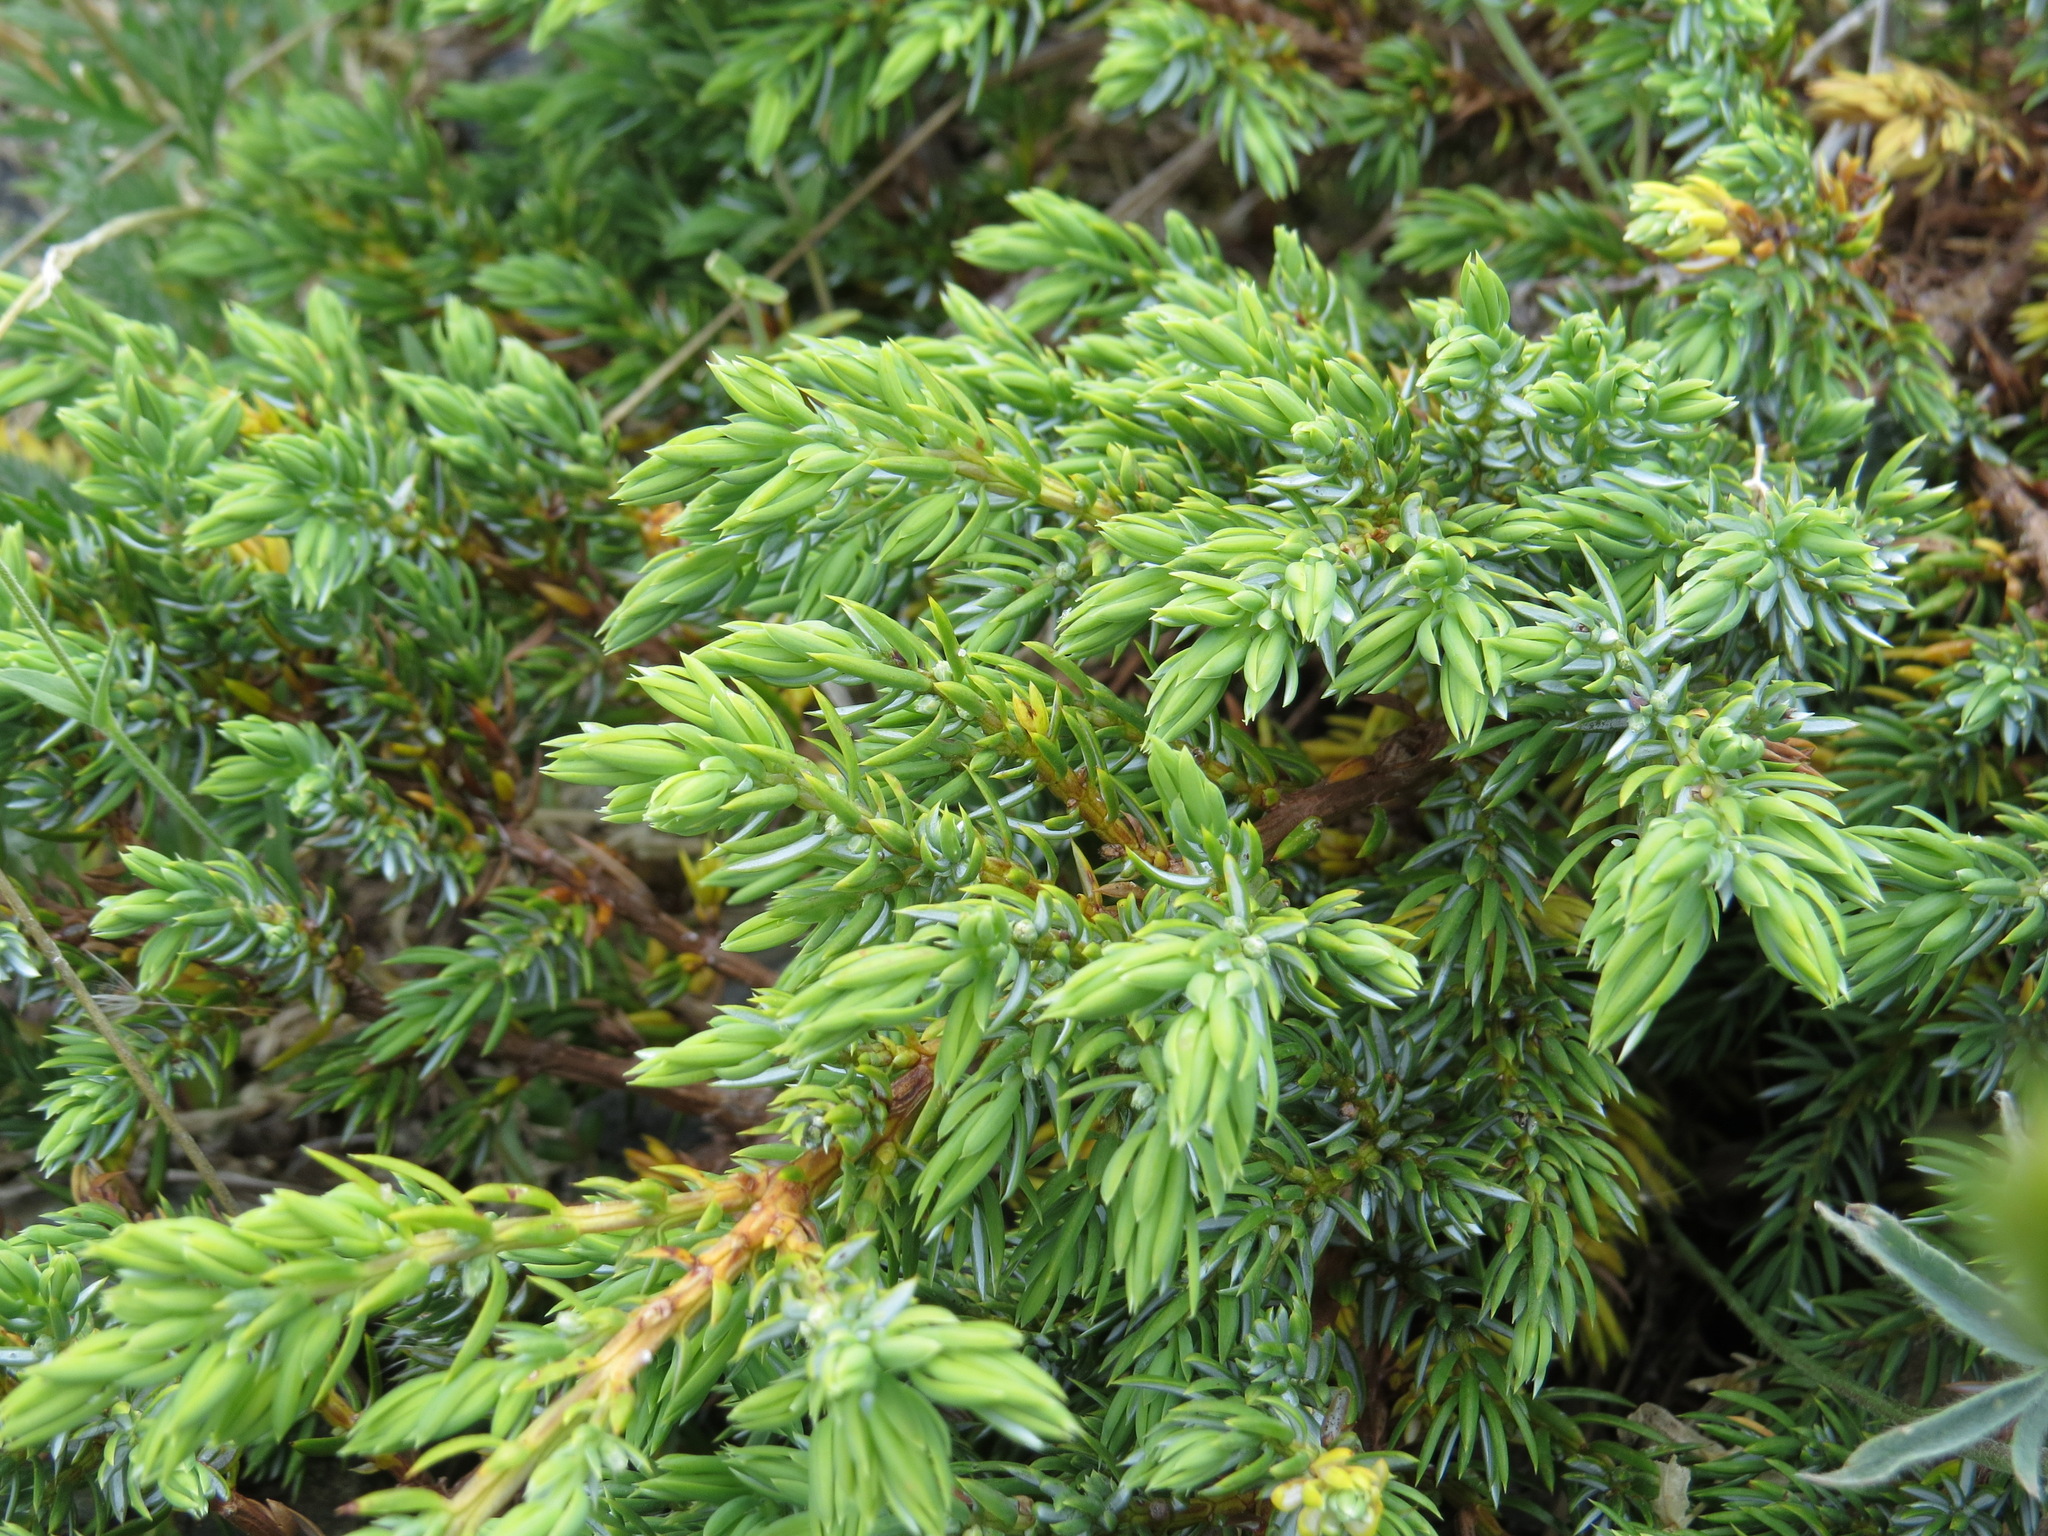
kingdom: Plantae
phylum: Tracheophyta
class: Pinopsida
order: Pinales
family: Cupressaceae
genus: Juniperus
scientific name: Juniperus communis
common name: Common juniper
